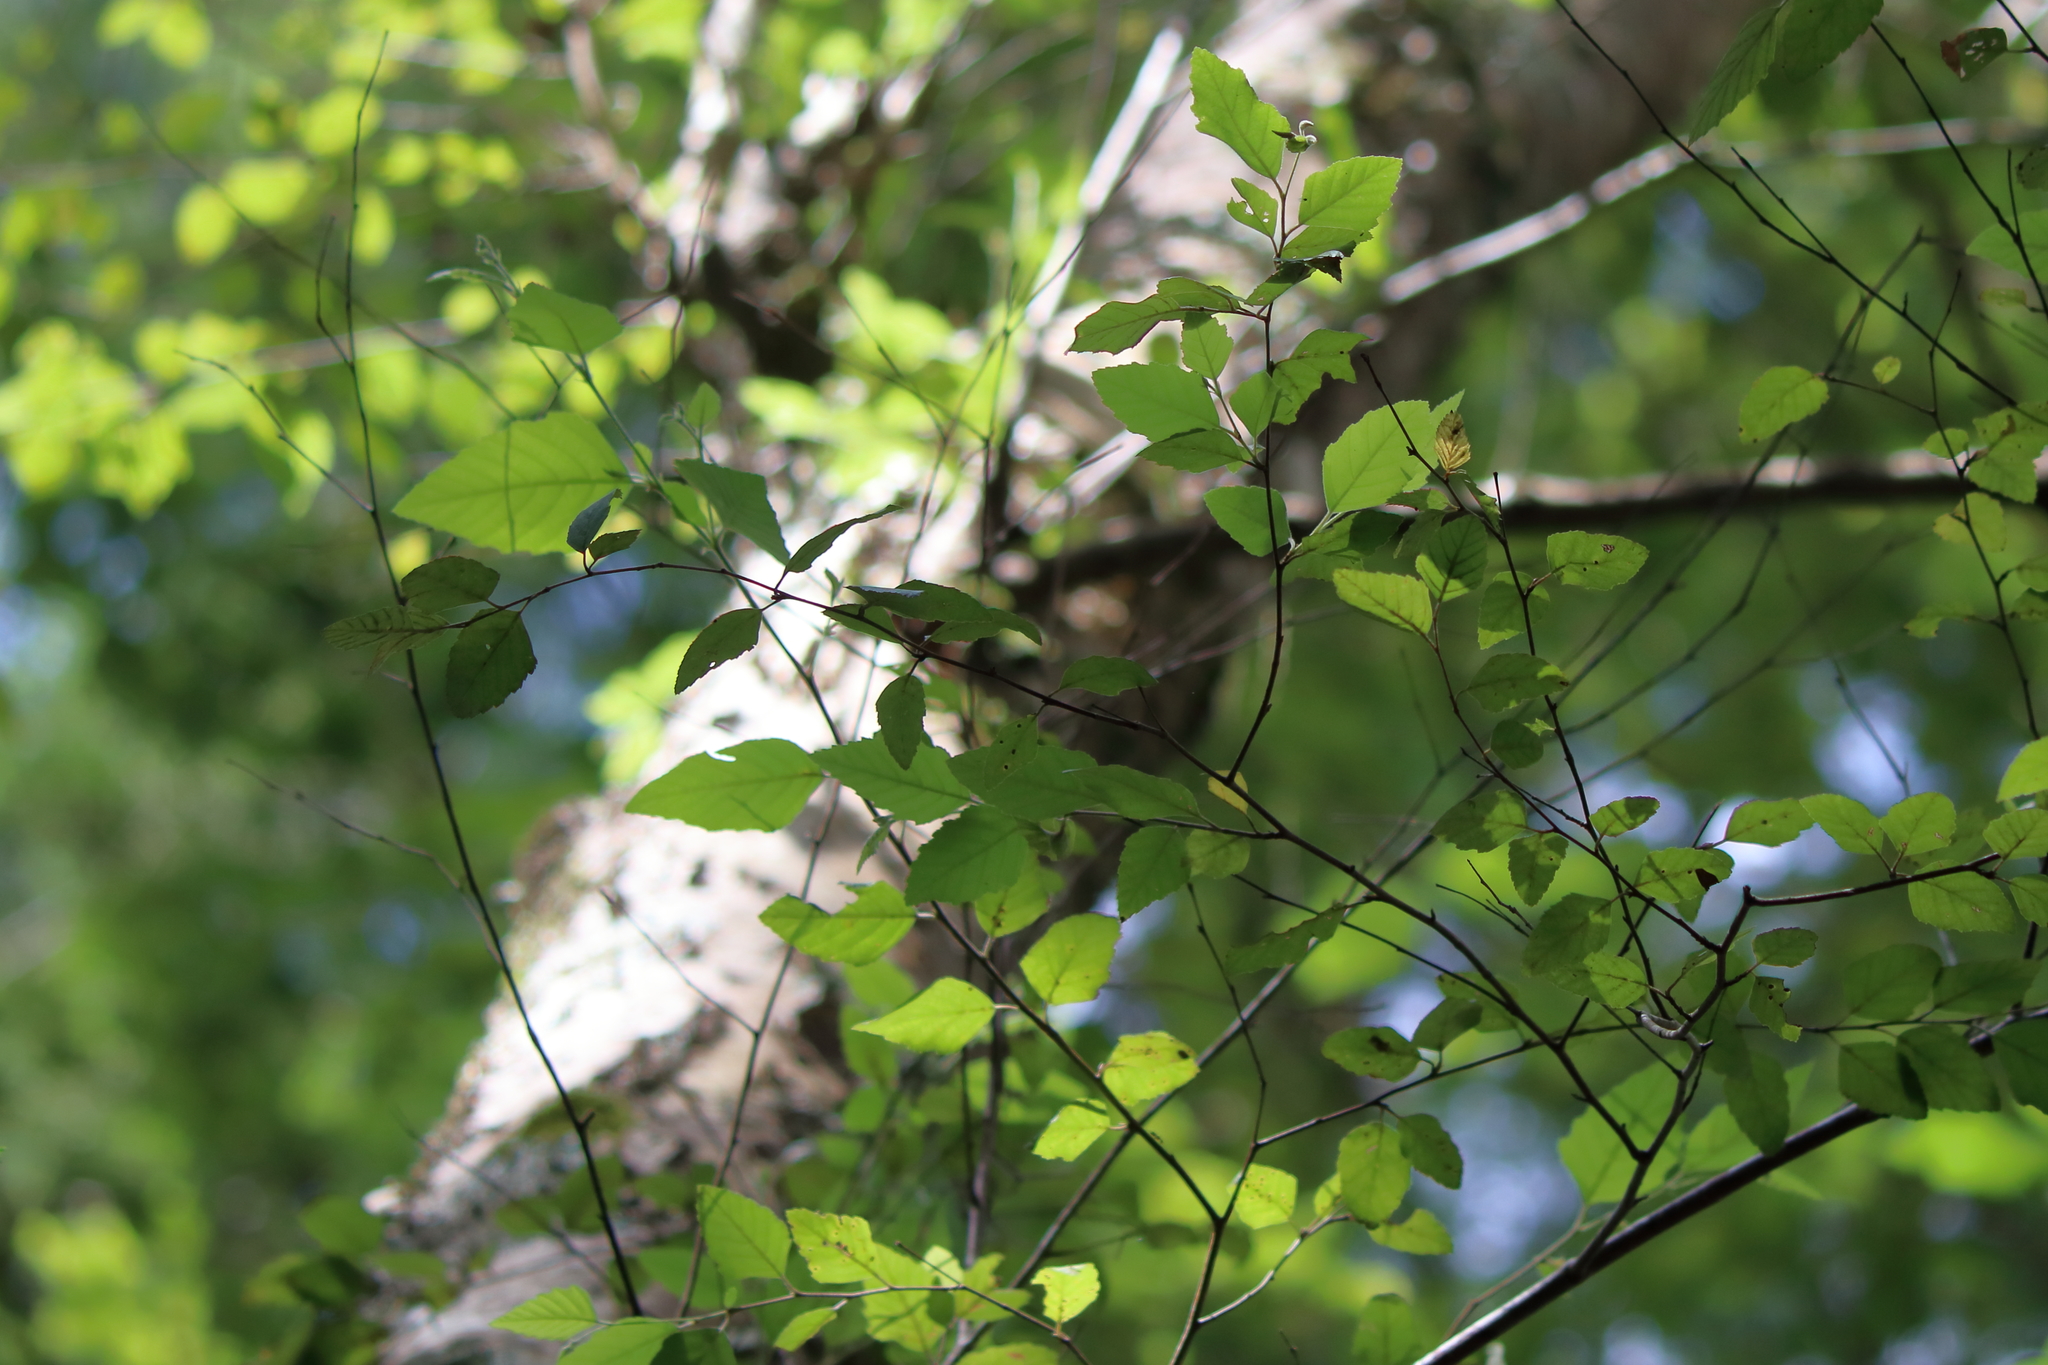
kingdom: Plantae
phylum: Tracheophyta
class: Magnoliopsida
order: Fagales
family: Betulaceae
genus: Betula
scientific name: Betula nigra
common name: Black birch
